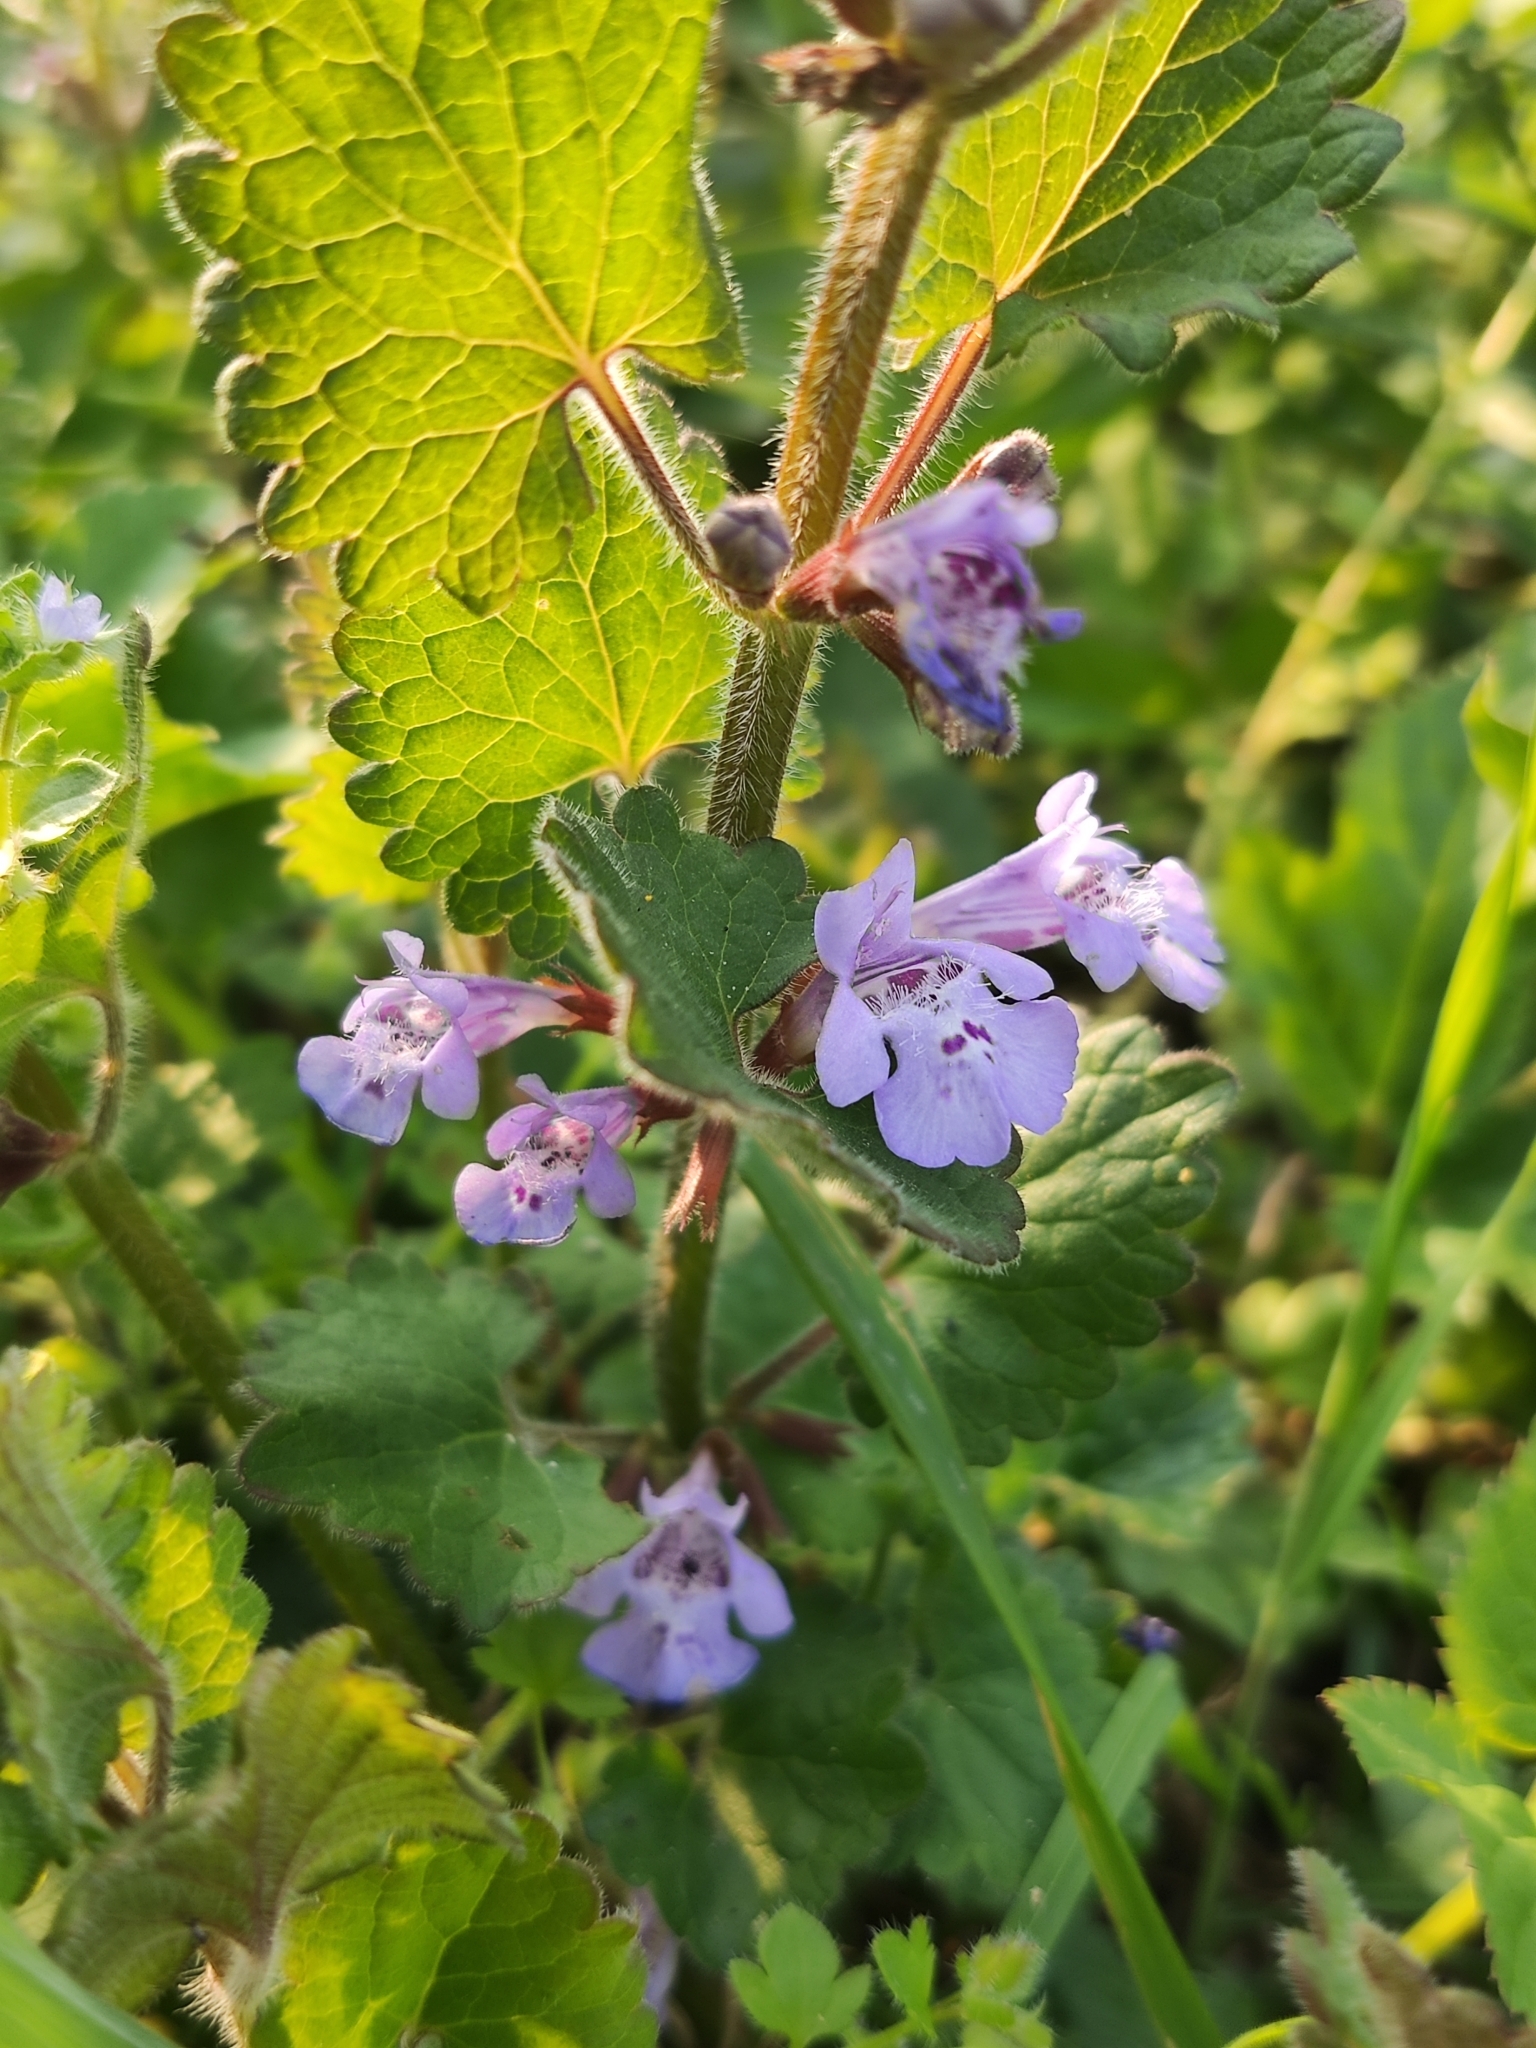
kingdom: Plantae
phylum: Tracheophyta
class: Magnoliopsida
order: Lamiales
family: Lamiaceae
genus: Glechoma
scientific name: Glechoma hederacea
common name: Ground ivy
